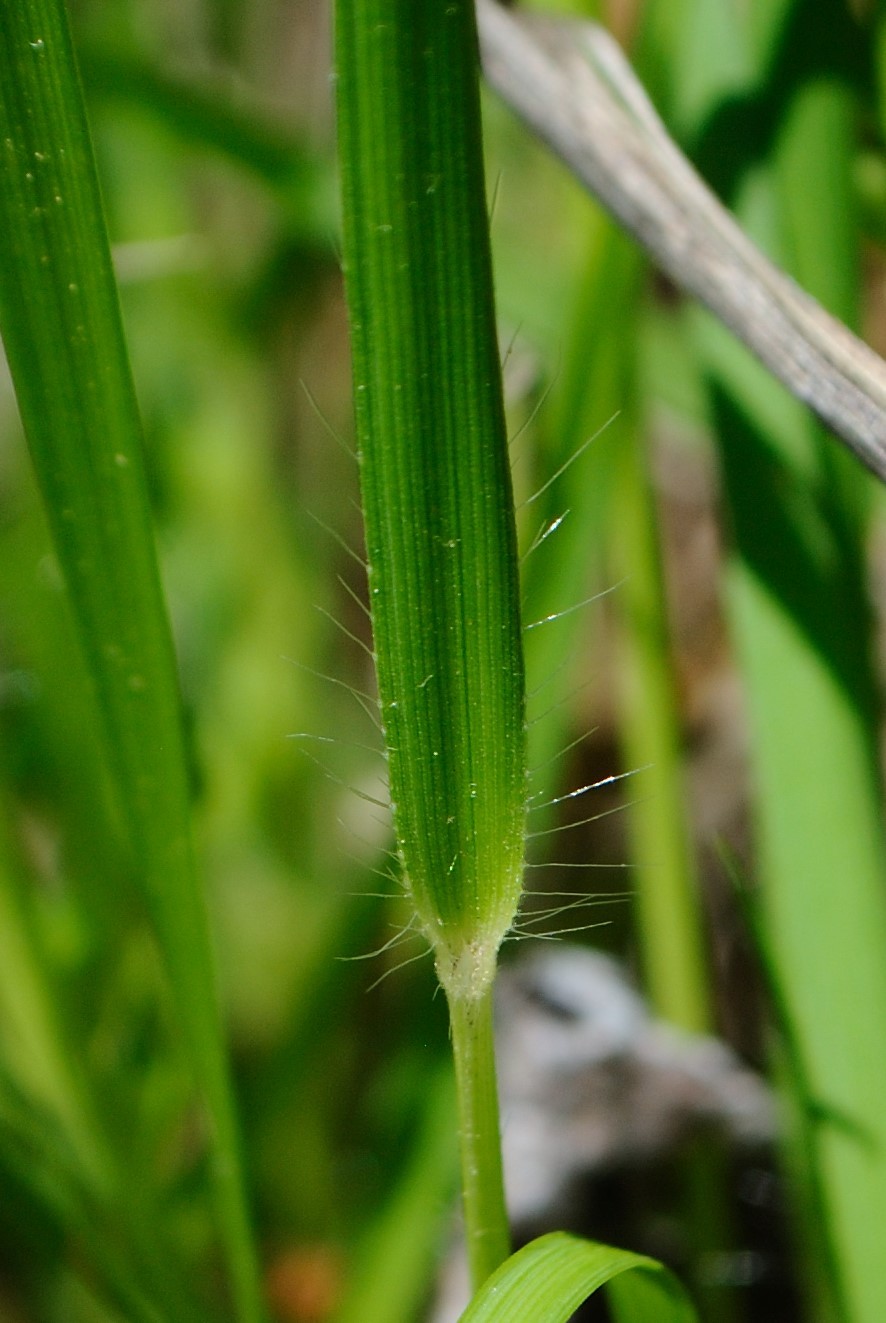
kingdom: Plantae
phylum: Tracheophyta
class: Liliopsida
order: Poales
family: Poaceae
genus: Dichanthelium
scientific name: Dichanthelium depauperatum
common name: Depauperate panicgrass
